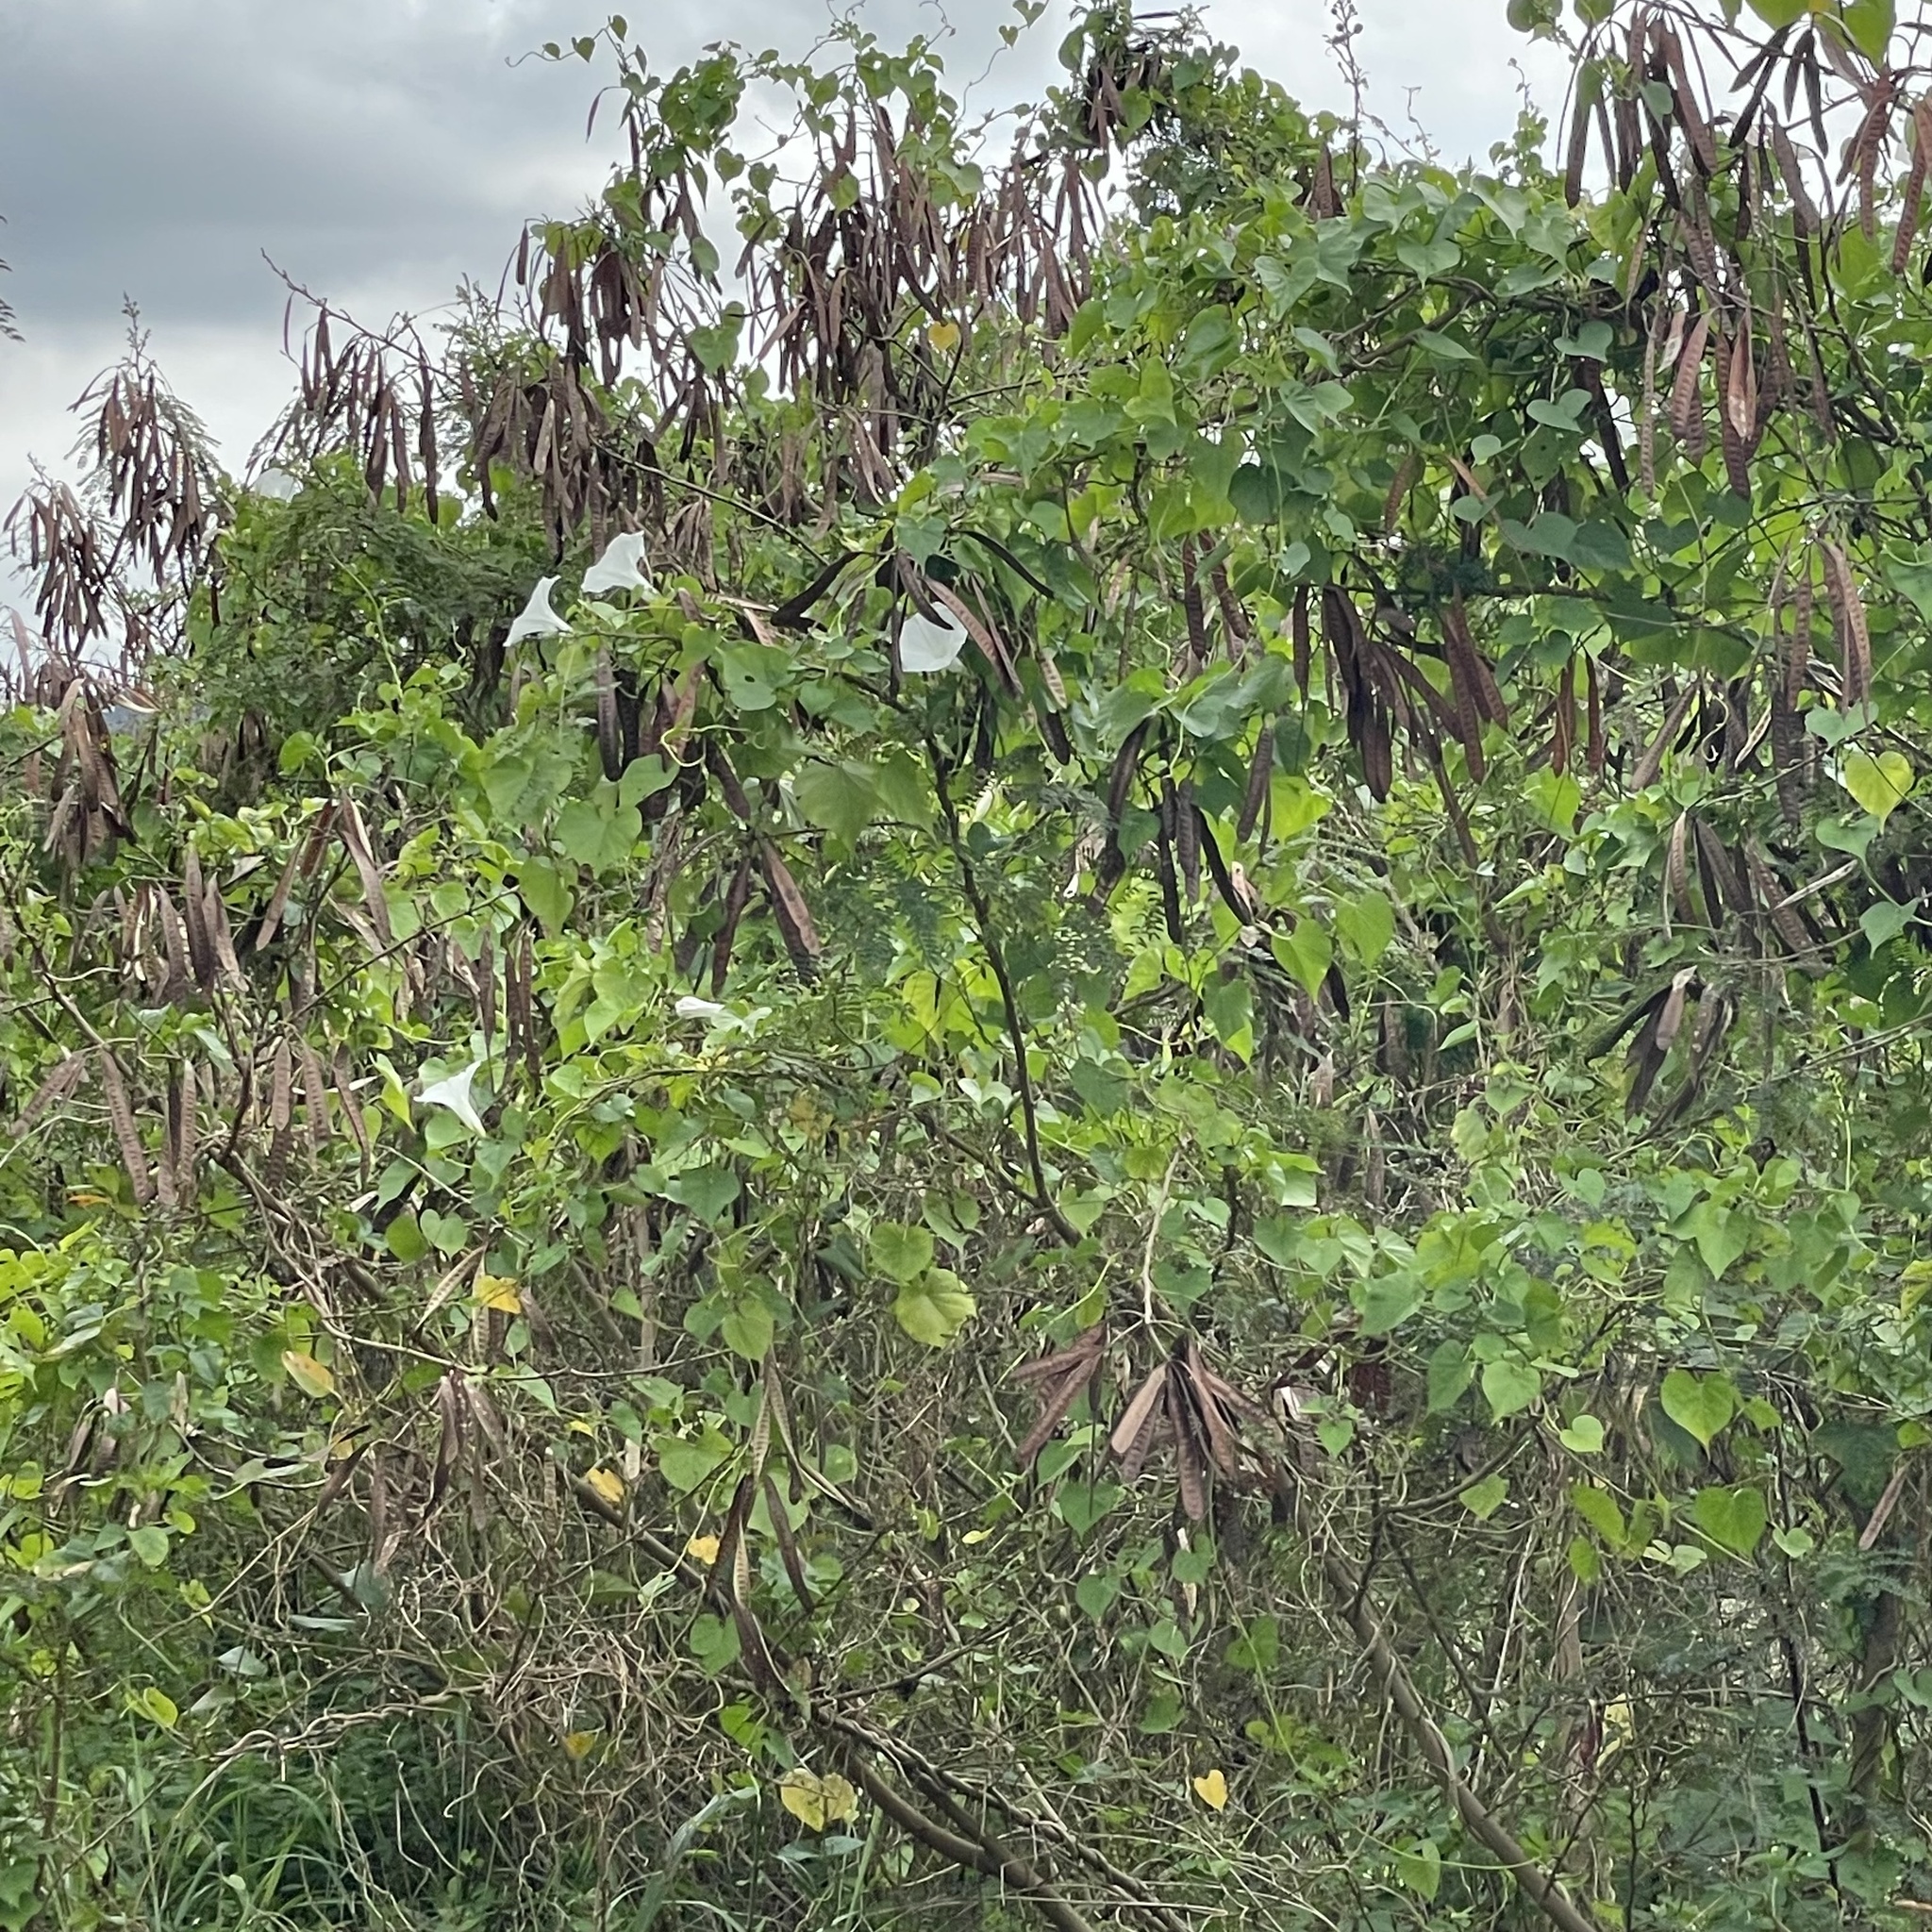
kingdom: Plantae
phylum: Tracheophyta
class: Magnoliopsida
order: Solanales
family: Convolvulaceae
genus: Ipomoea
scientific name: Ipomoea indica
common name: Blue dawnflower
